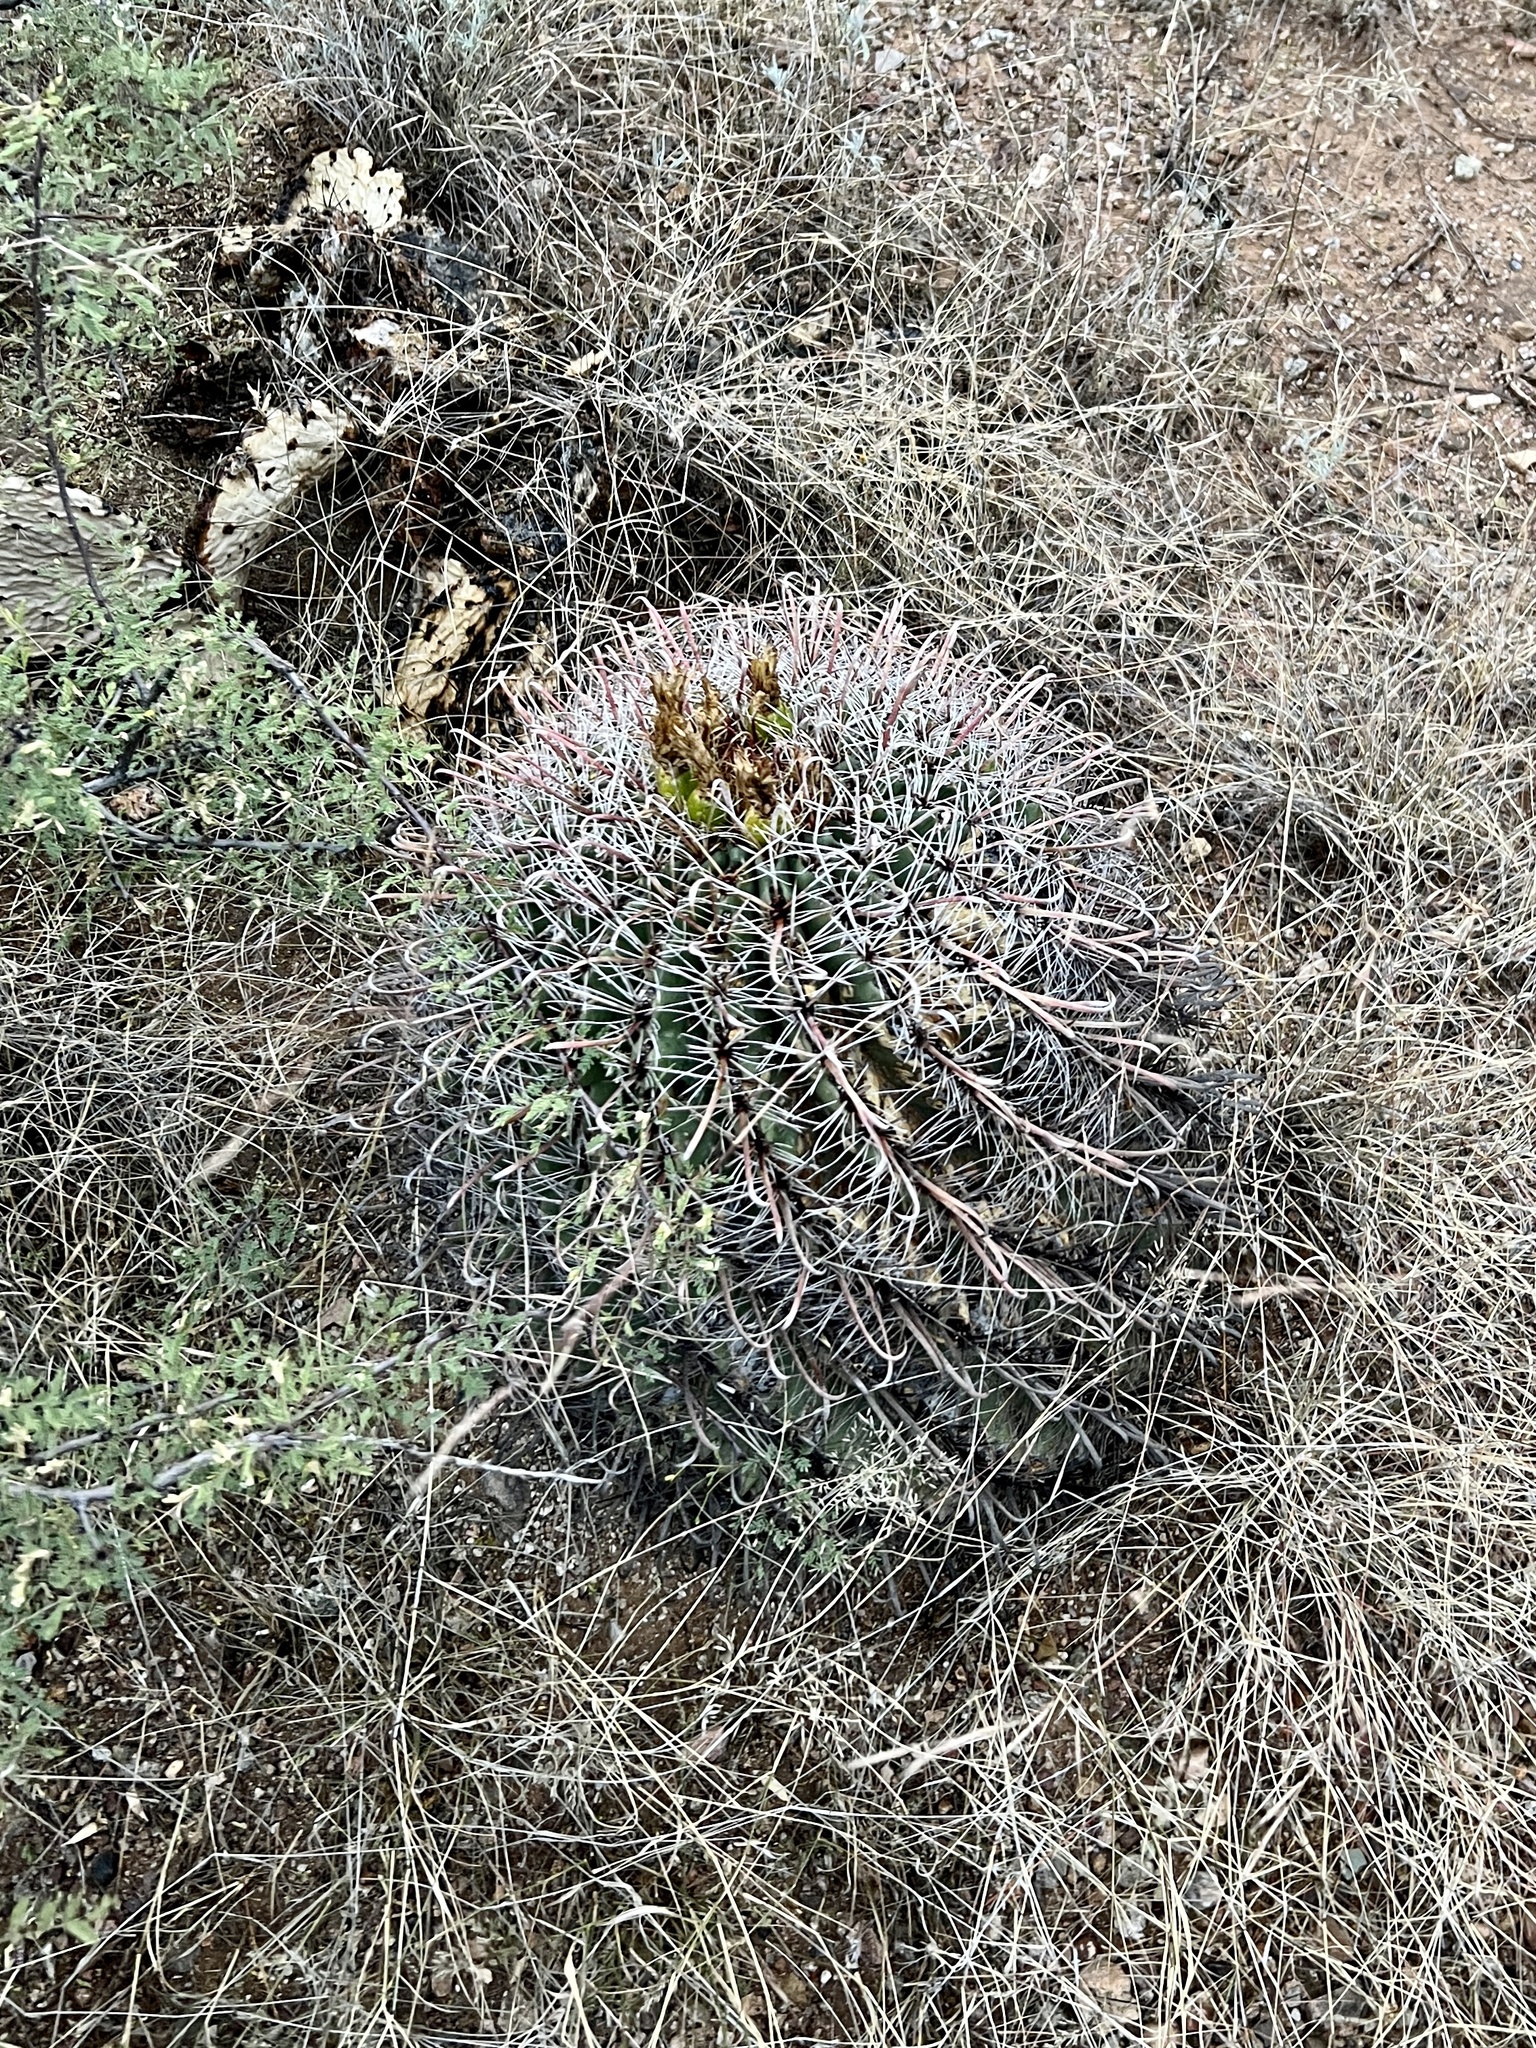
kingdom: Plantae
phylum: Tracheophyta
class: Magnoliopsida
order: Caryophyllales
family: Cactaceae
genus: Ferocactus
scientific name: Ferocactus wislizeni
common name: Candy barrel cactus
